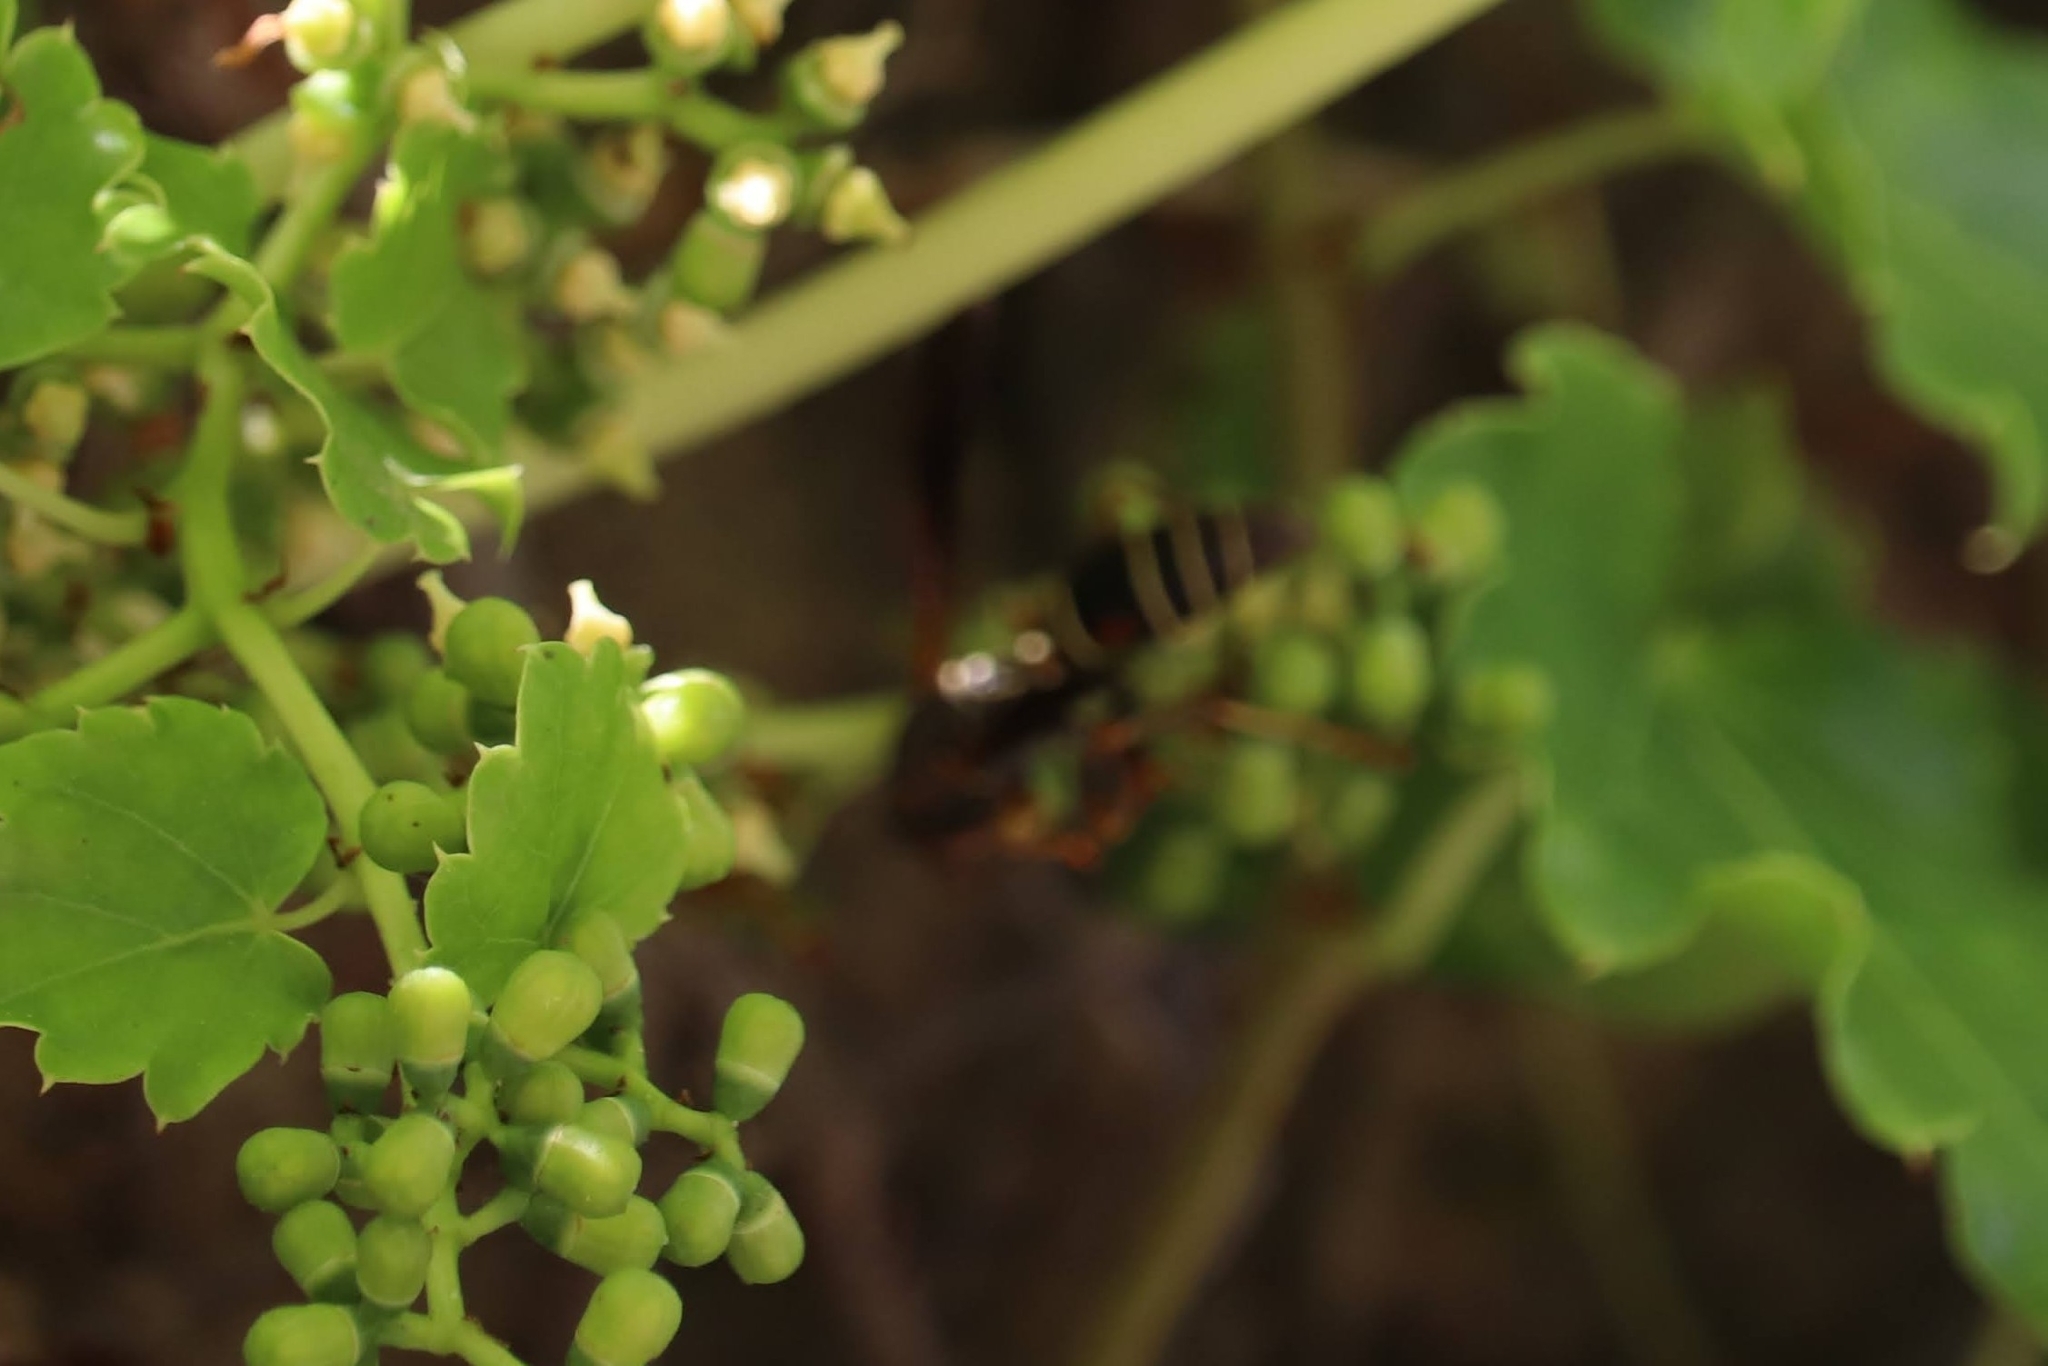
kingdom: Animalia
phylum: Arthropoda
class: Insecta
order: Hymenoptera
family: Eumenidae
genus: Polistes
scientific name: Polistes fuscatus
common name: Dark paper wasp
